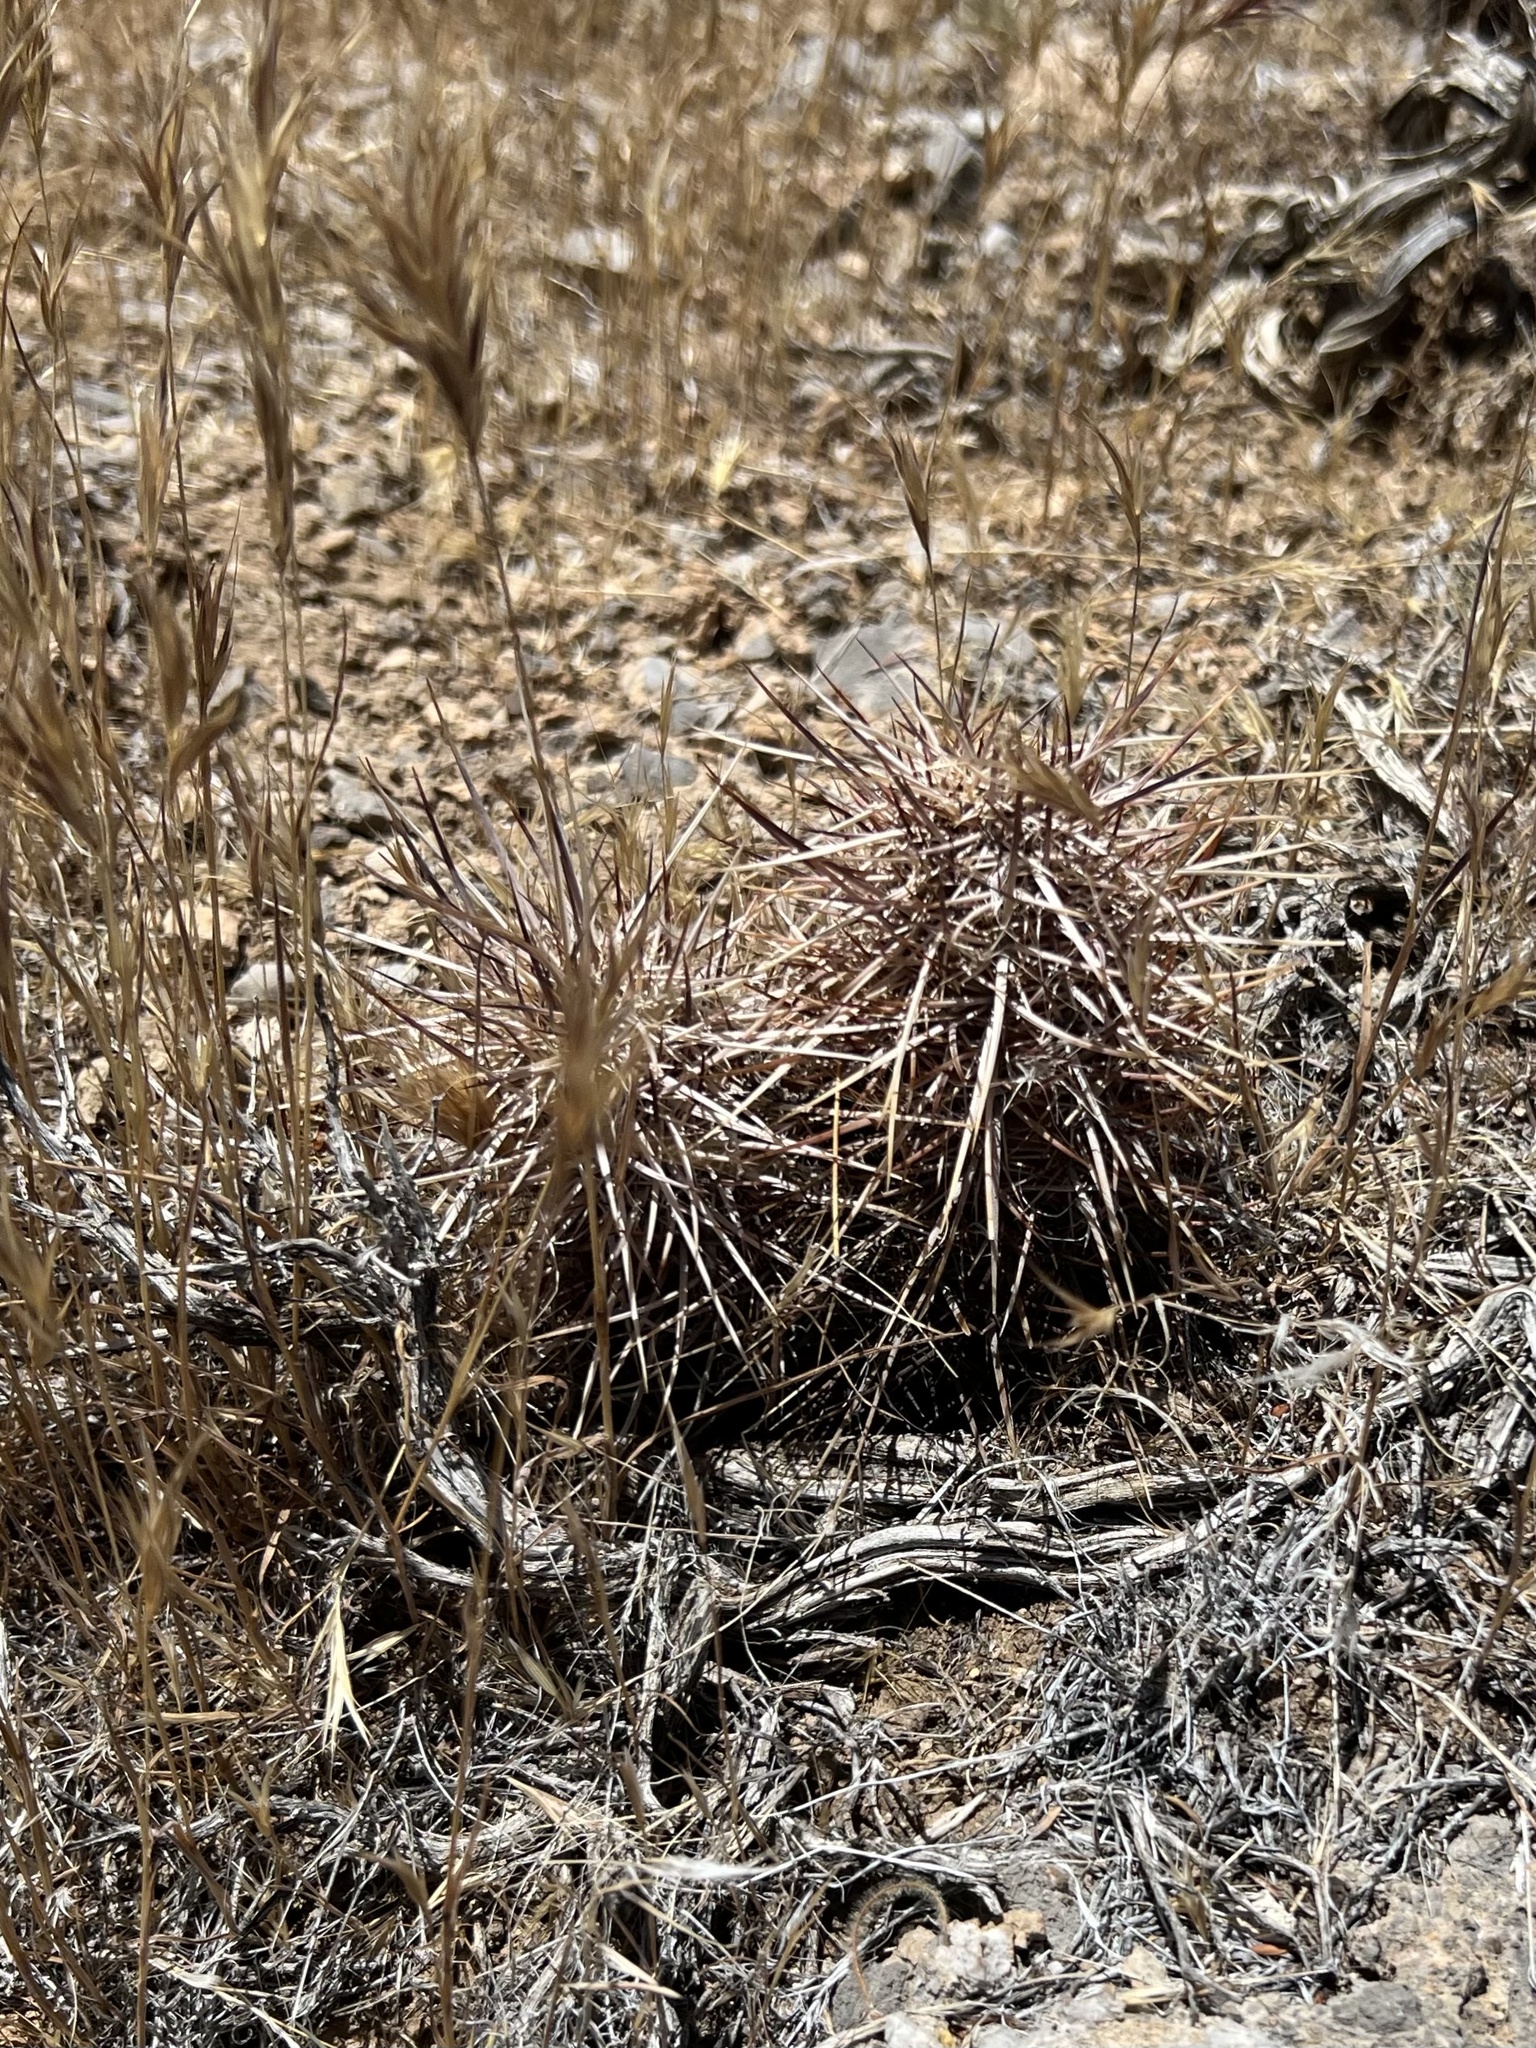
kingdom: Plantae
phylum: Tracheophyta
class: Magnoliopsida
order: Caryophyllales
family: Cactaceae
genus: Echinocereus
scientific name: Echinocereus engelmannii
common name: Engelmann's hedgehog cactus
